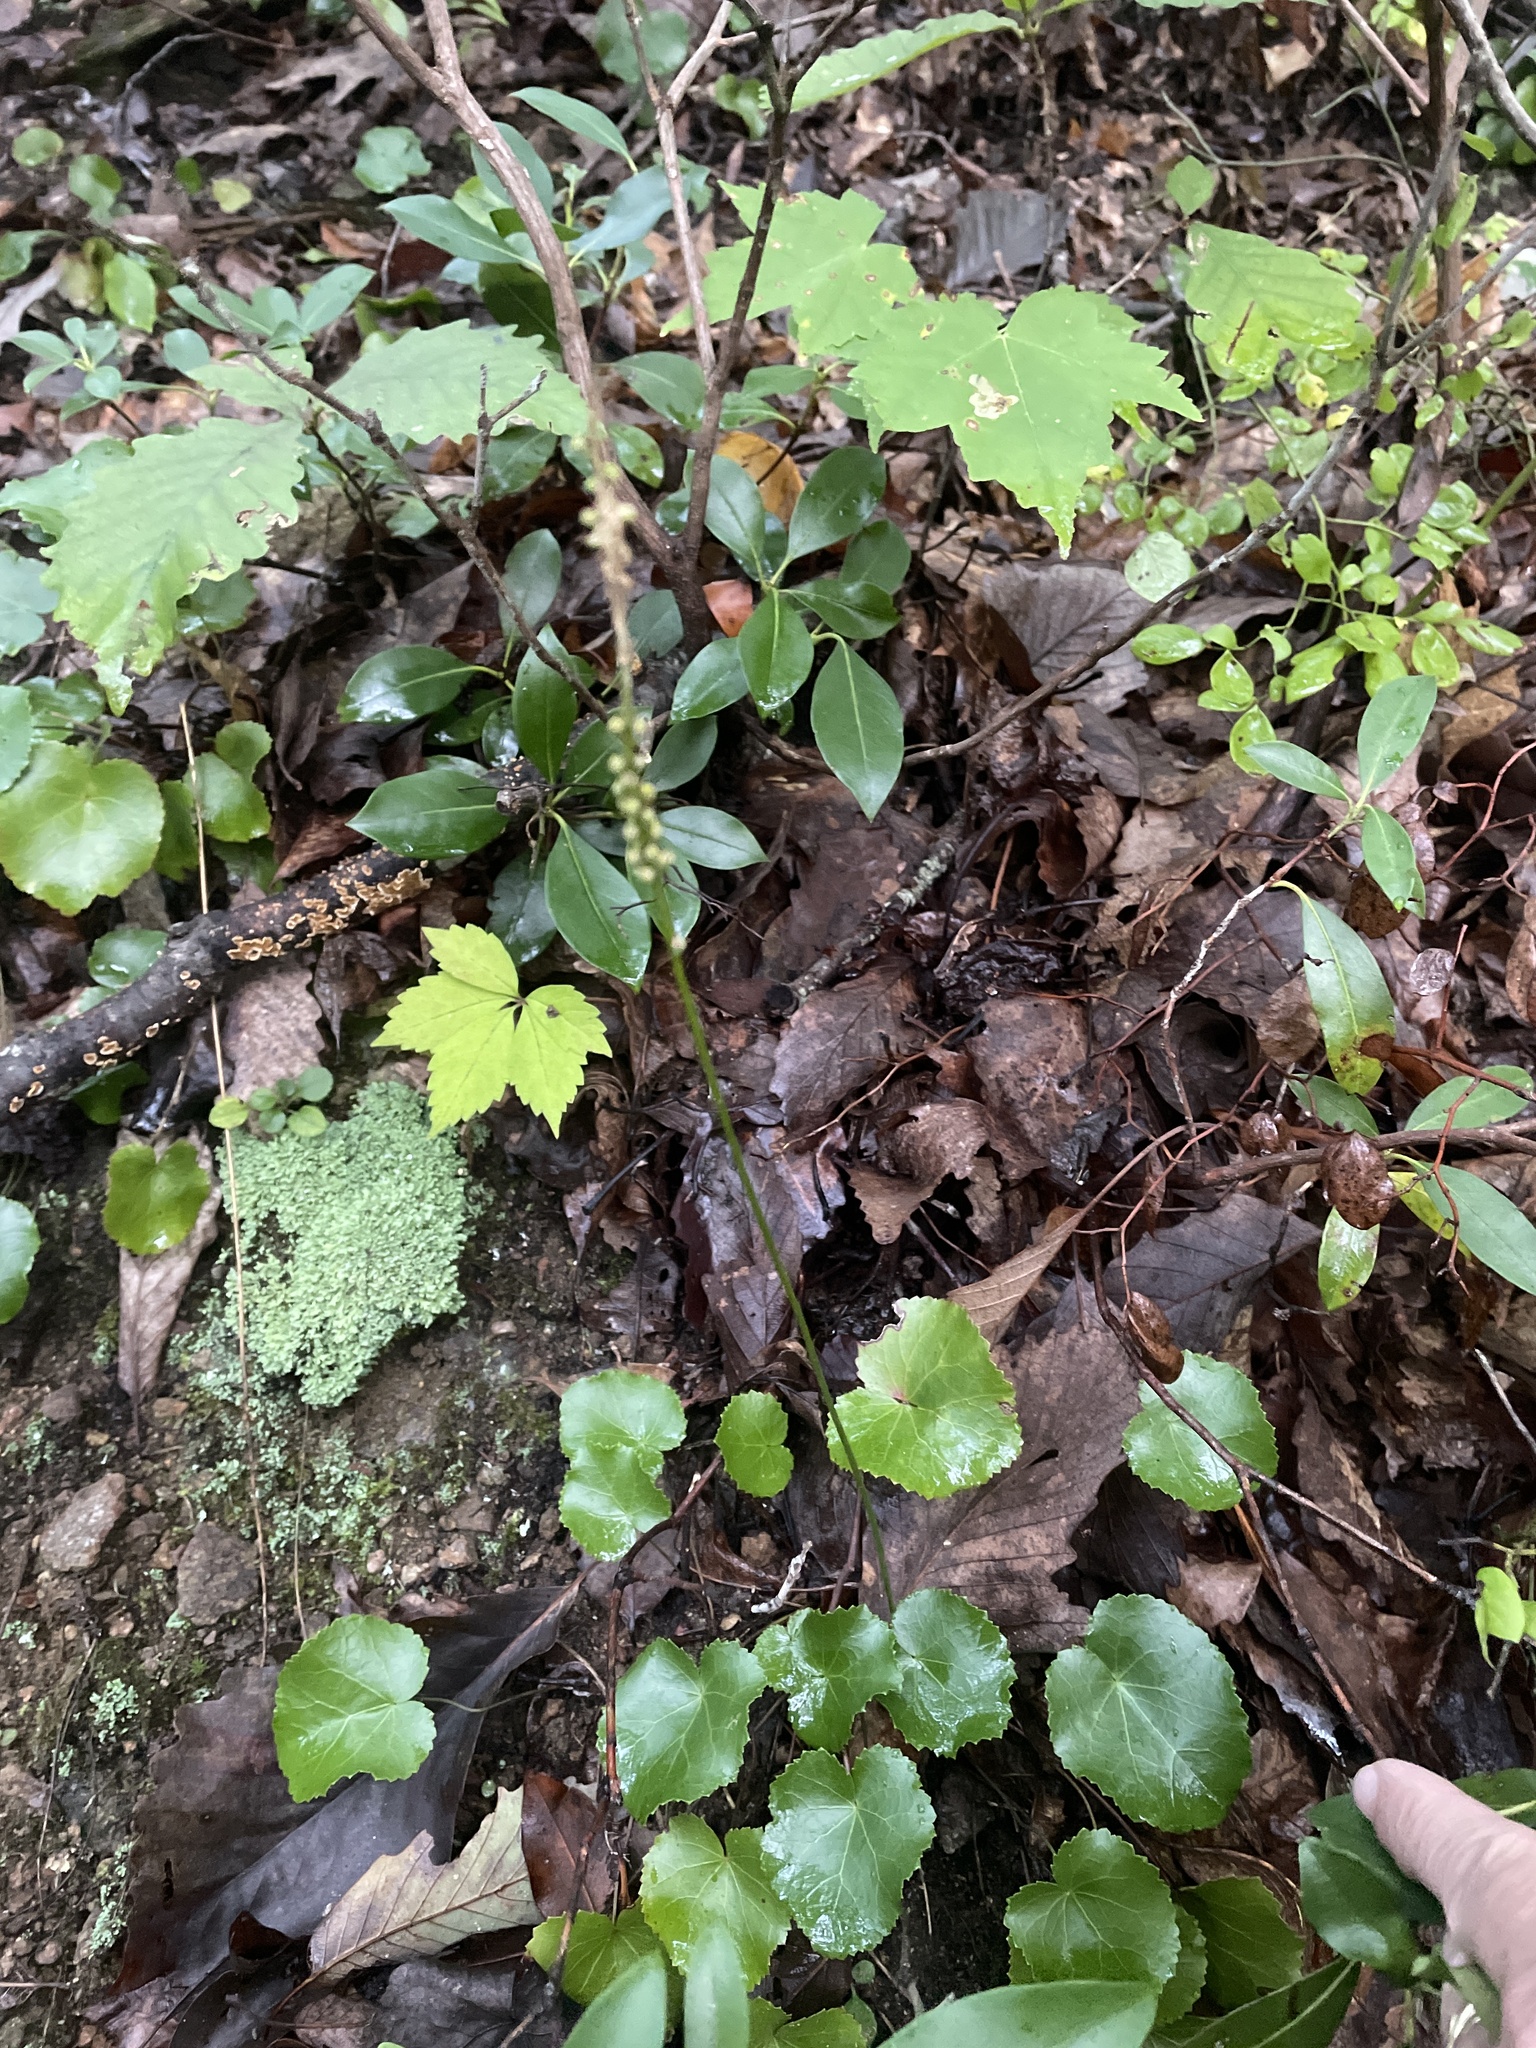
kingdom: Plantae
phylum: Tracheophyta
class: Magnoliopsida
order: Ericales
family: Diapensiaceae
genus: Galax
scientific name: Galax urceolata
